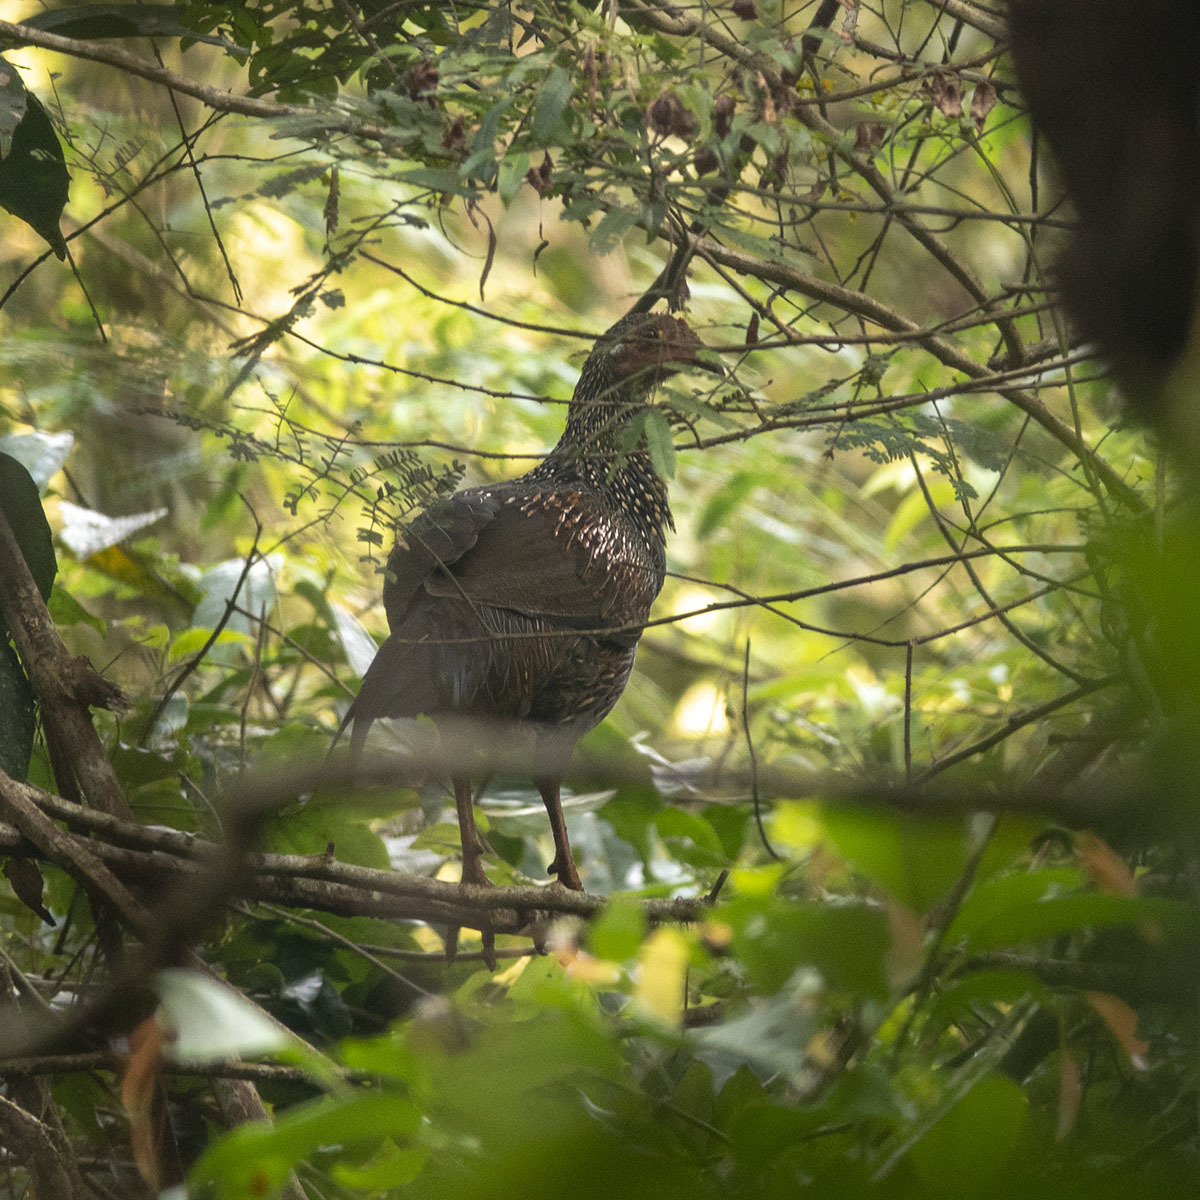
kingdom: Animalia
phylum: Chordata
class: Aves
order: Galliformes
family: Phasianidae
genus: Gallus
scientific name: Gallus sonneratii
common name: Grey junglefowl
